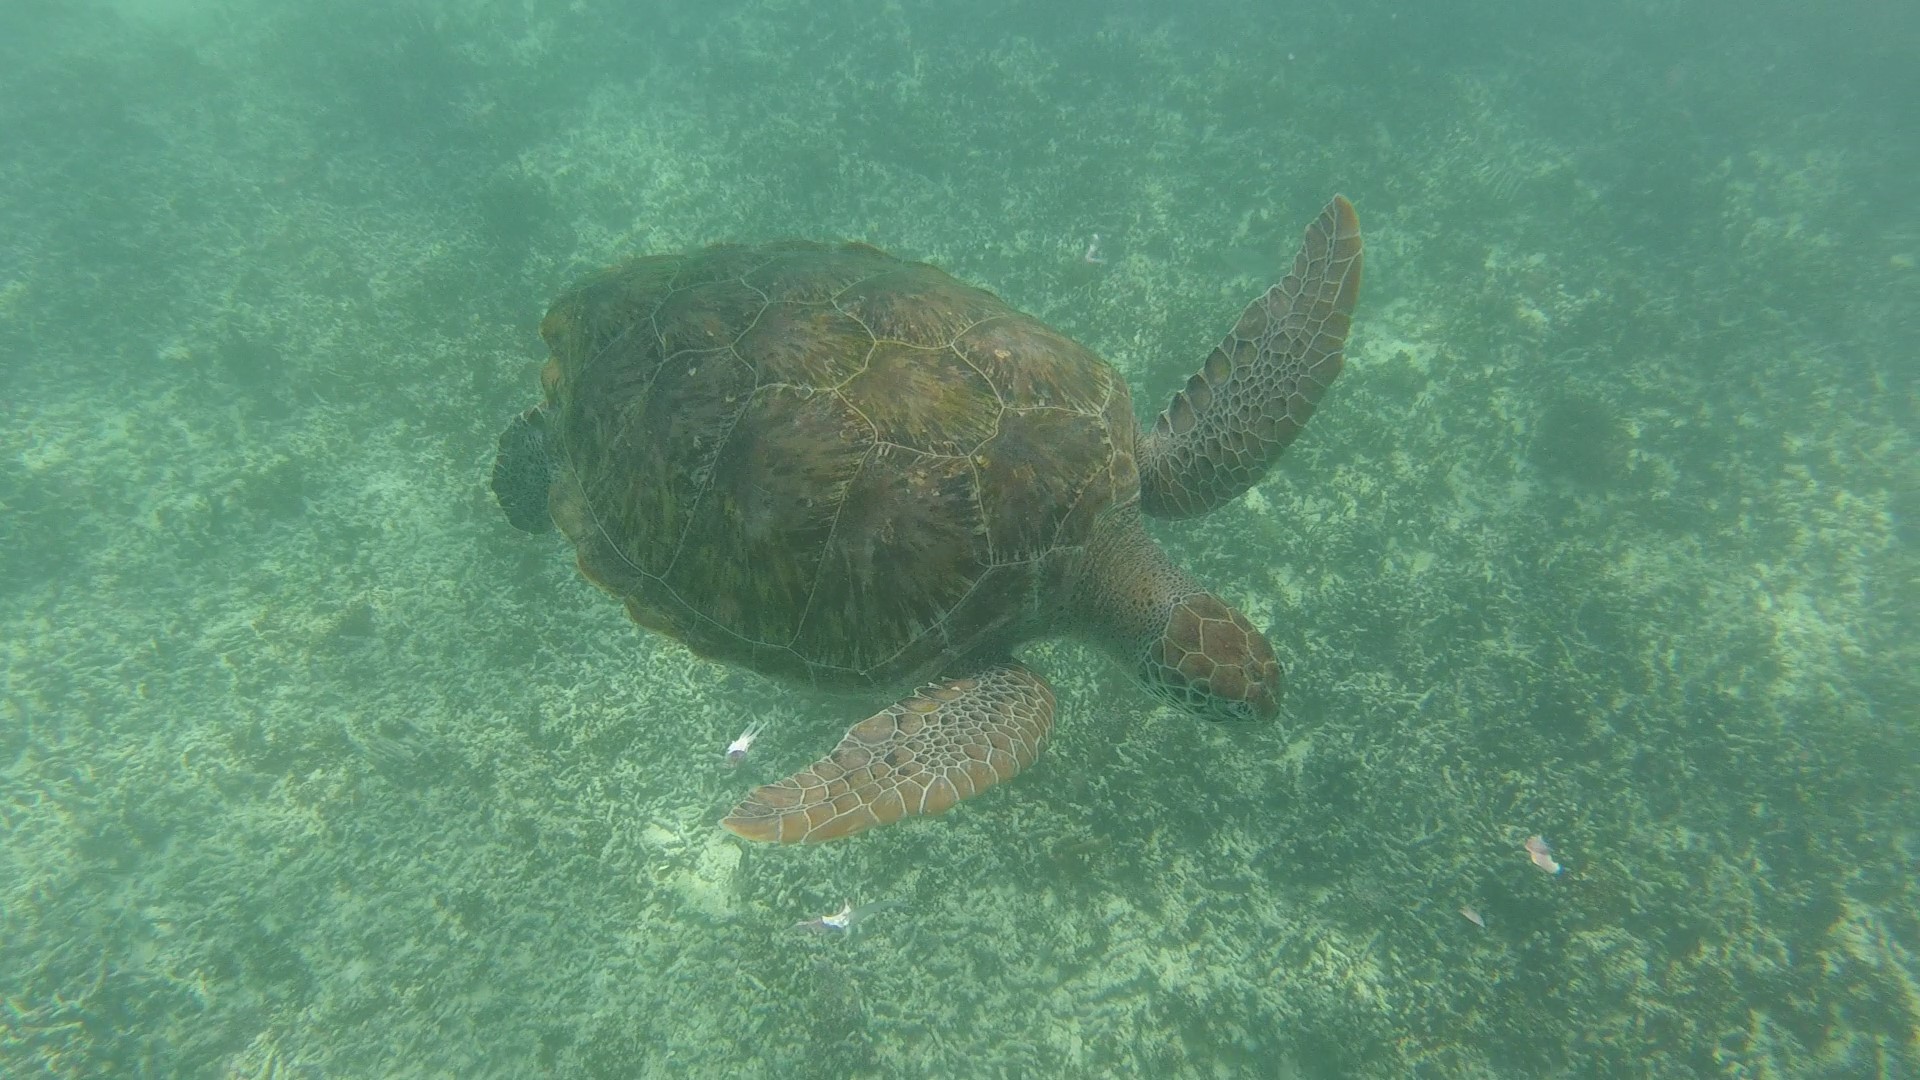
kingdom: Animalia
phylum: Chordata
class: Testudines
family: Cheloniidae
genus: Chelonia
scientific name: Chelonia mydas
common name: Green turtle
